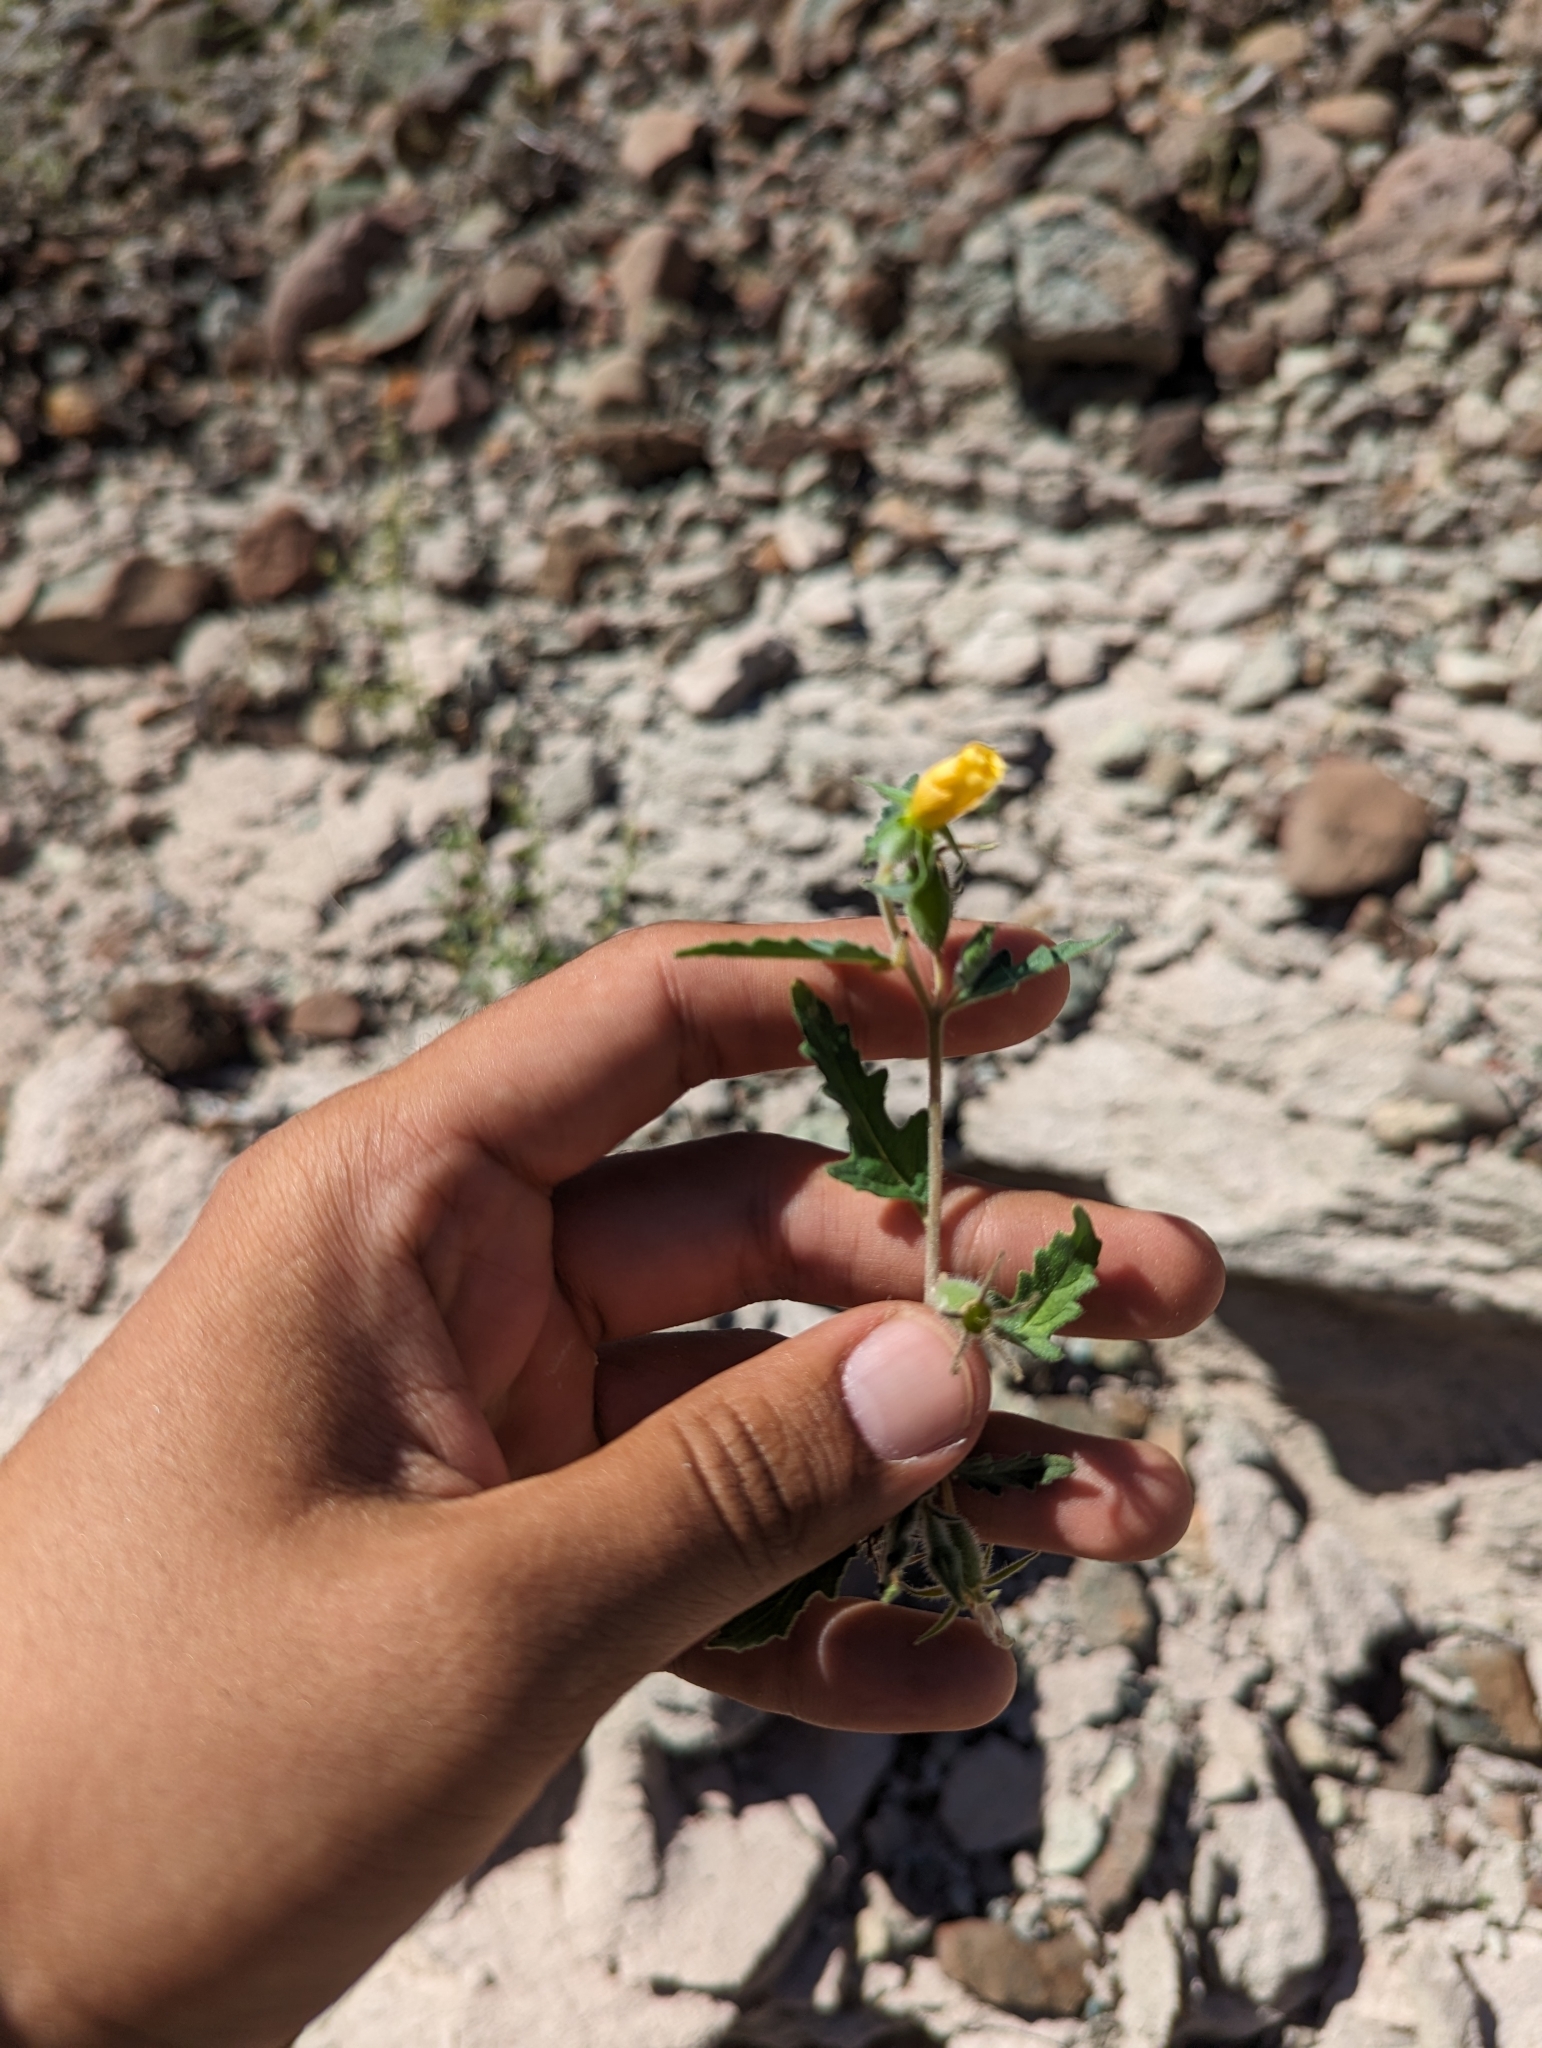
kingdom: Plantae
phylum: Tracheophyta
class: Magnoliopsida
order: Cornales
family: Loasaceae
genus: Mentzelia
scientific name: Mentzelia adhaerens
